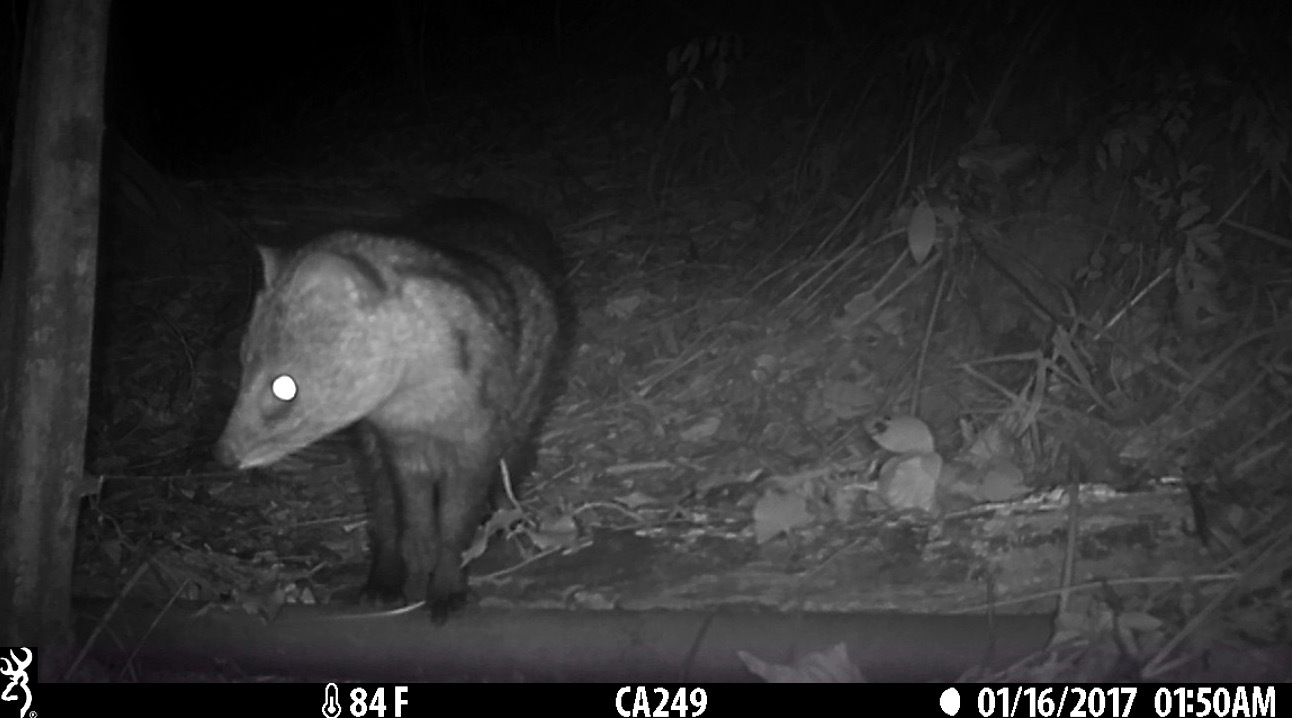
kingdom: Animalia
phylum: Chordata
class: Mammalia
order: Carnivora
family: Viverridae
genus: Viverricula
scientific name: Viverricula indica
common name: Small indian civet
